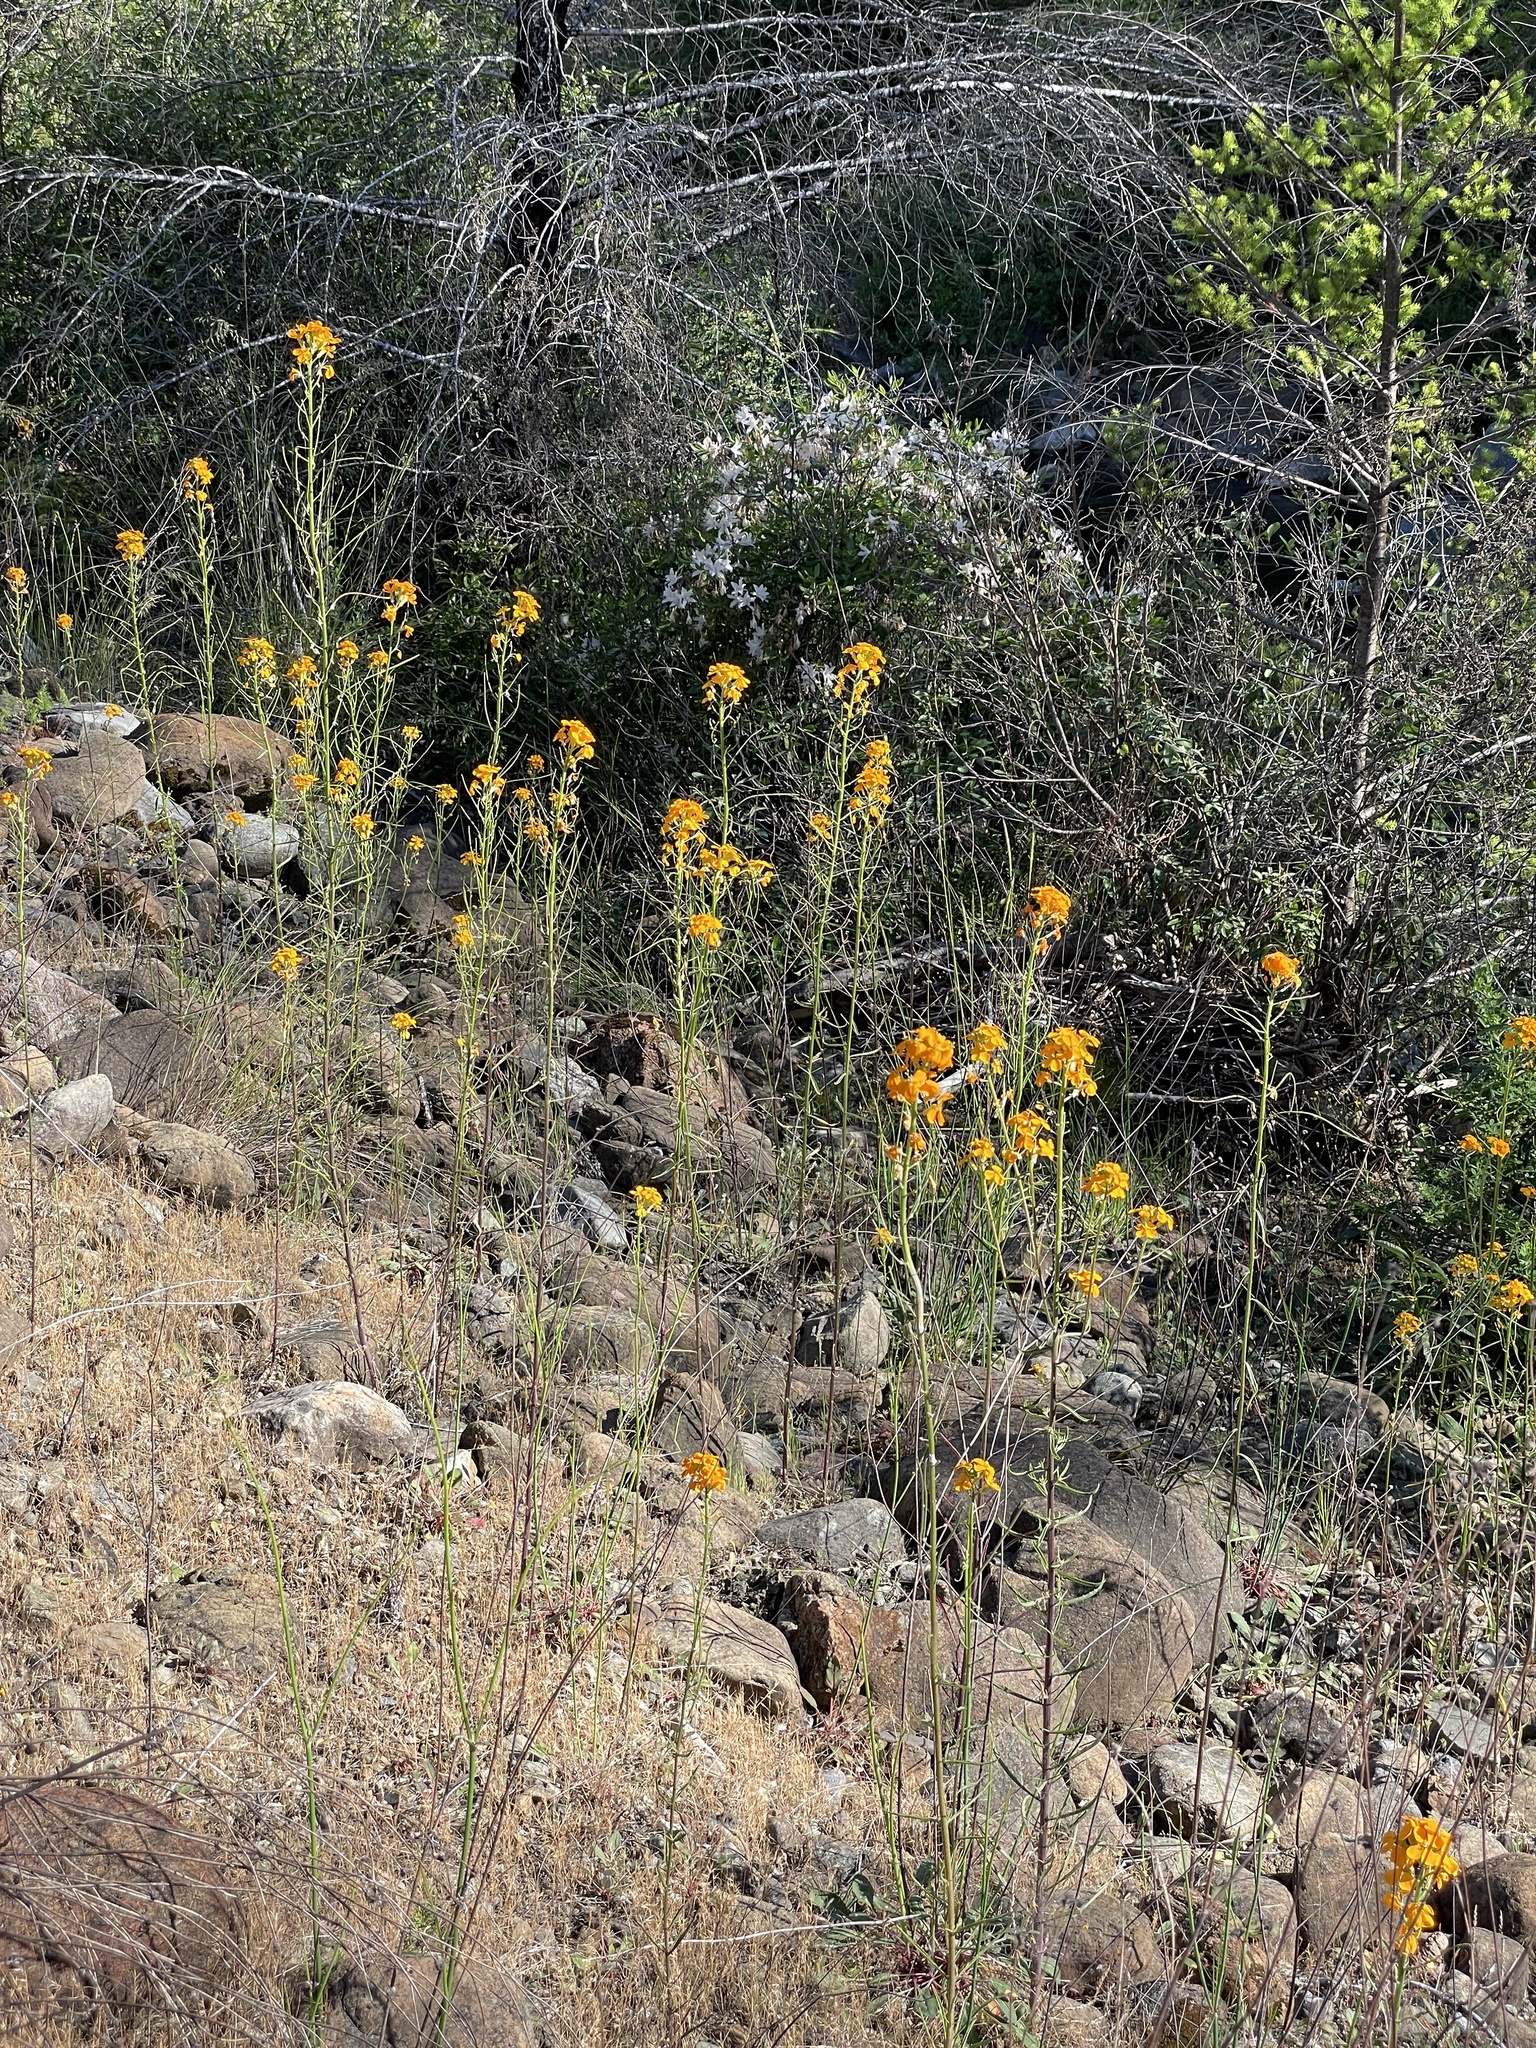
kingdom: Plantae
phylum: Tracheophyta
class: Magnoliopsida
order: Brassicales
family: Brassicaceae
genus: Erysimum
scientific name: Erysimum capitatum
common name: Western wallflower
